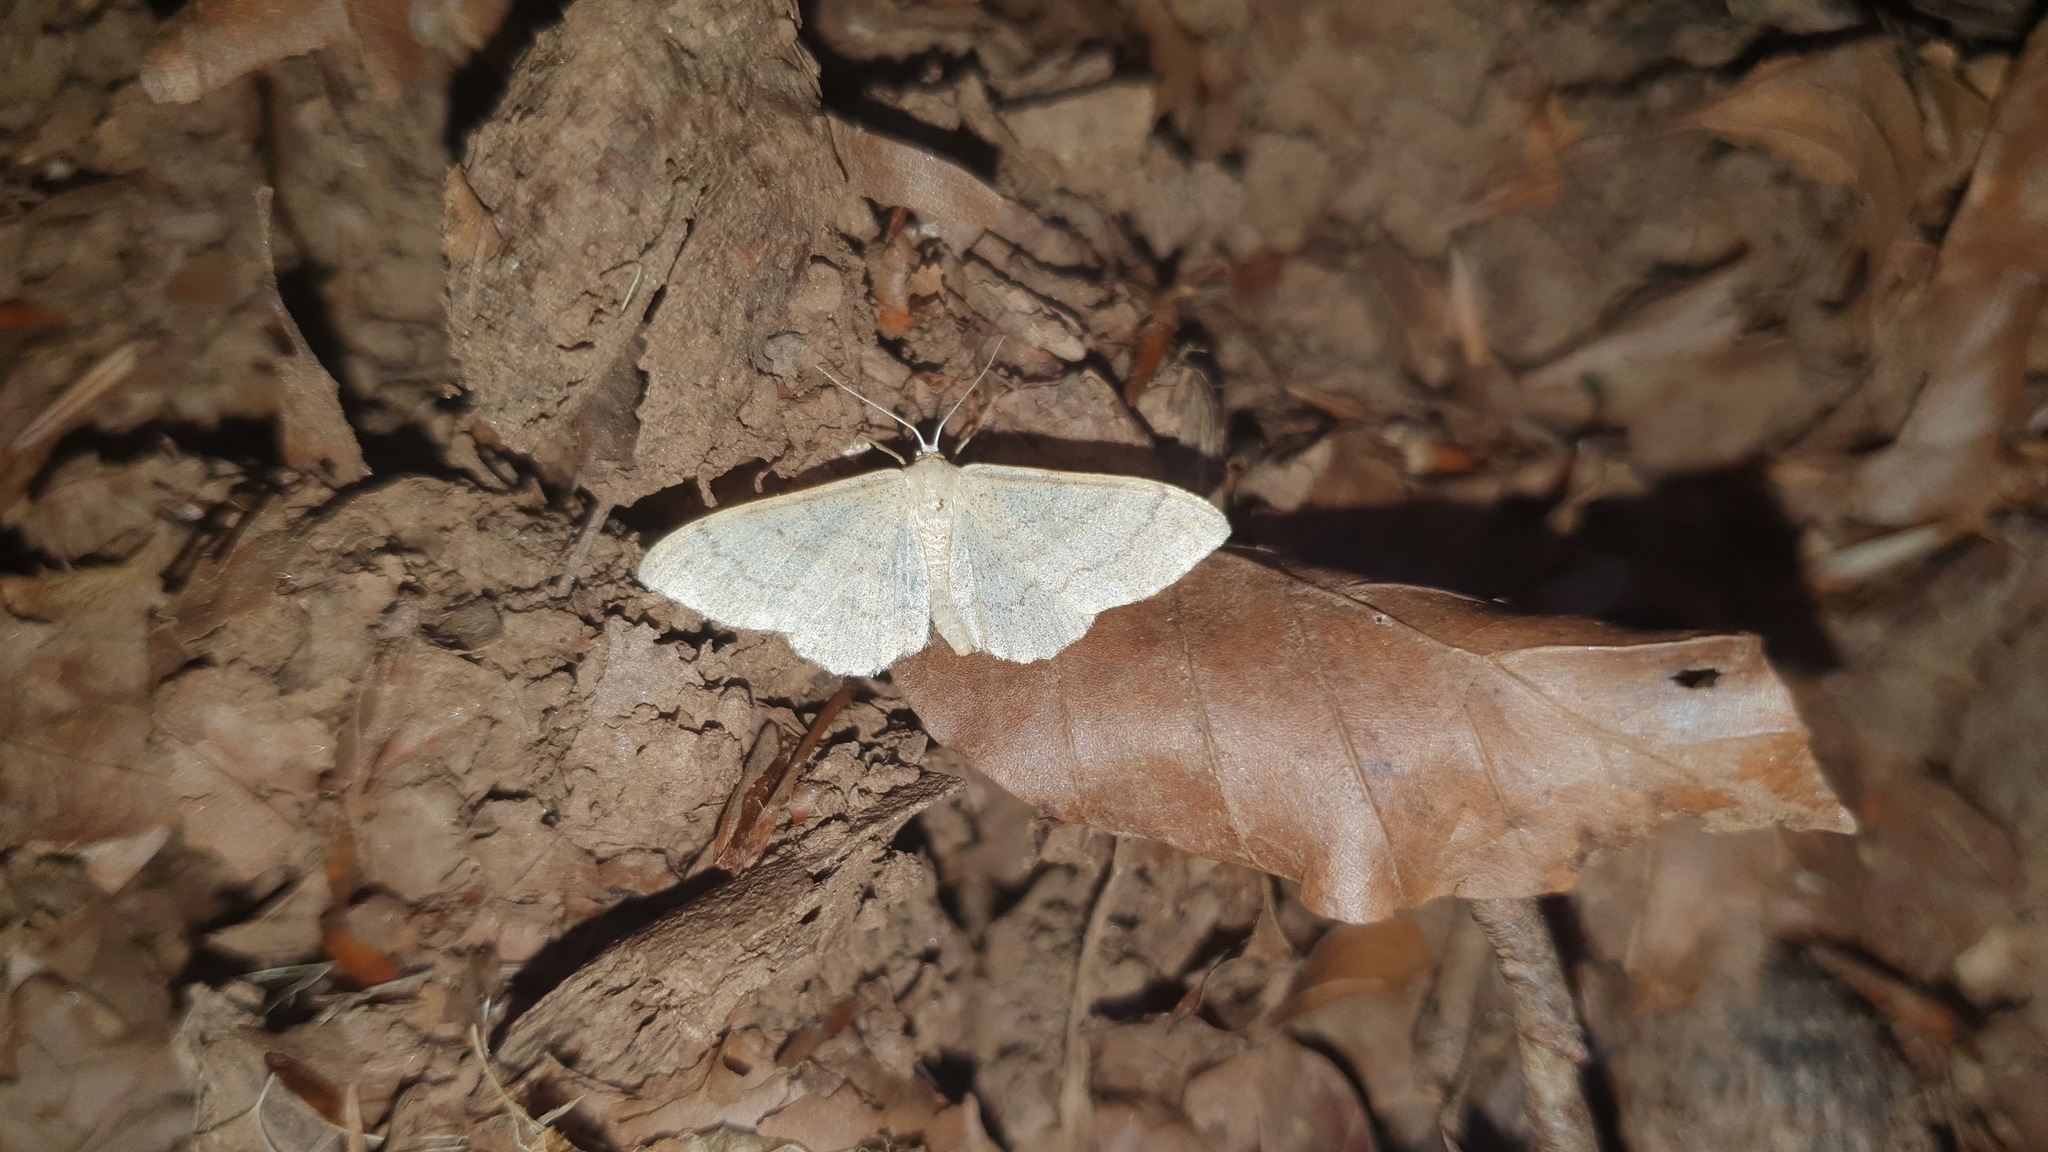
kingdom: Animalia
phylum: Arthropoda
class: Insecta
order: Lepidoptera
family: Geometridae
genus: Idaea
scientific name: Idaea straminata
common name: Plain wave
